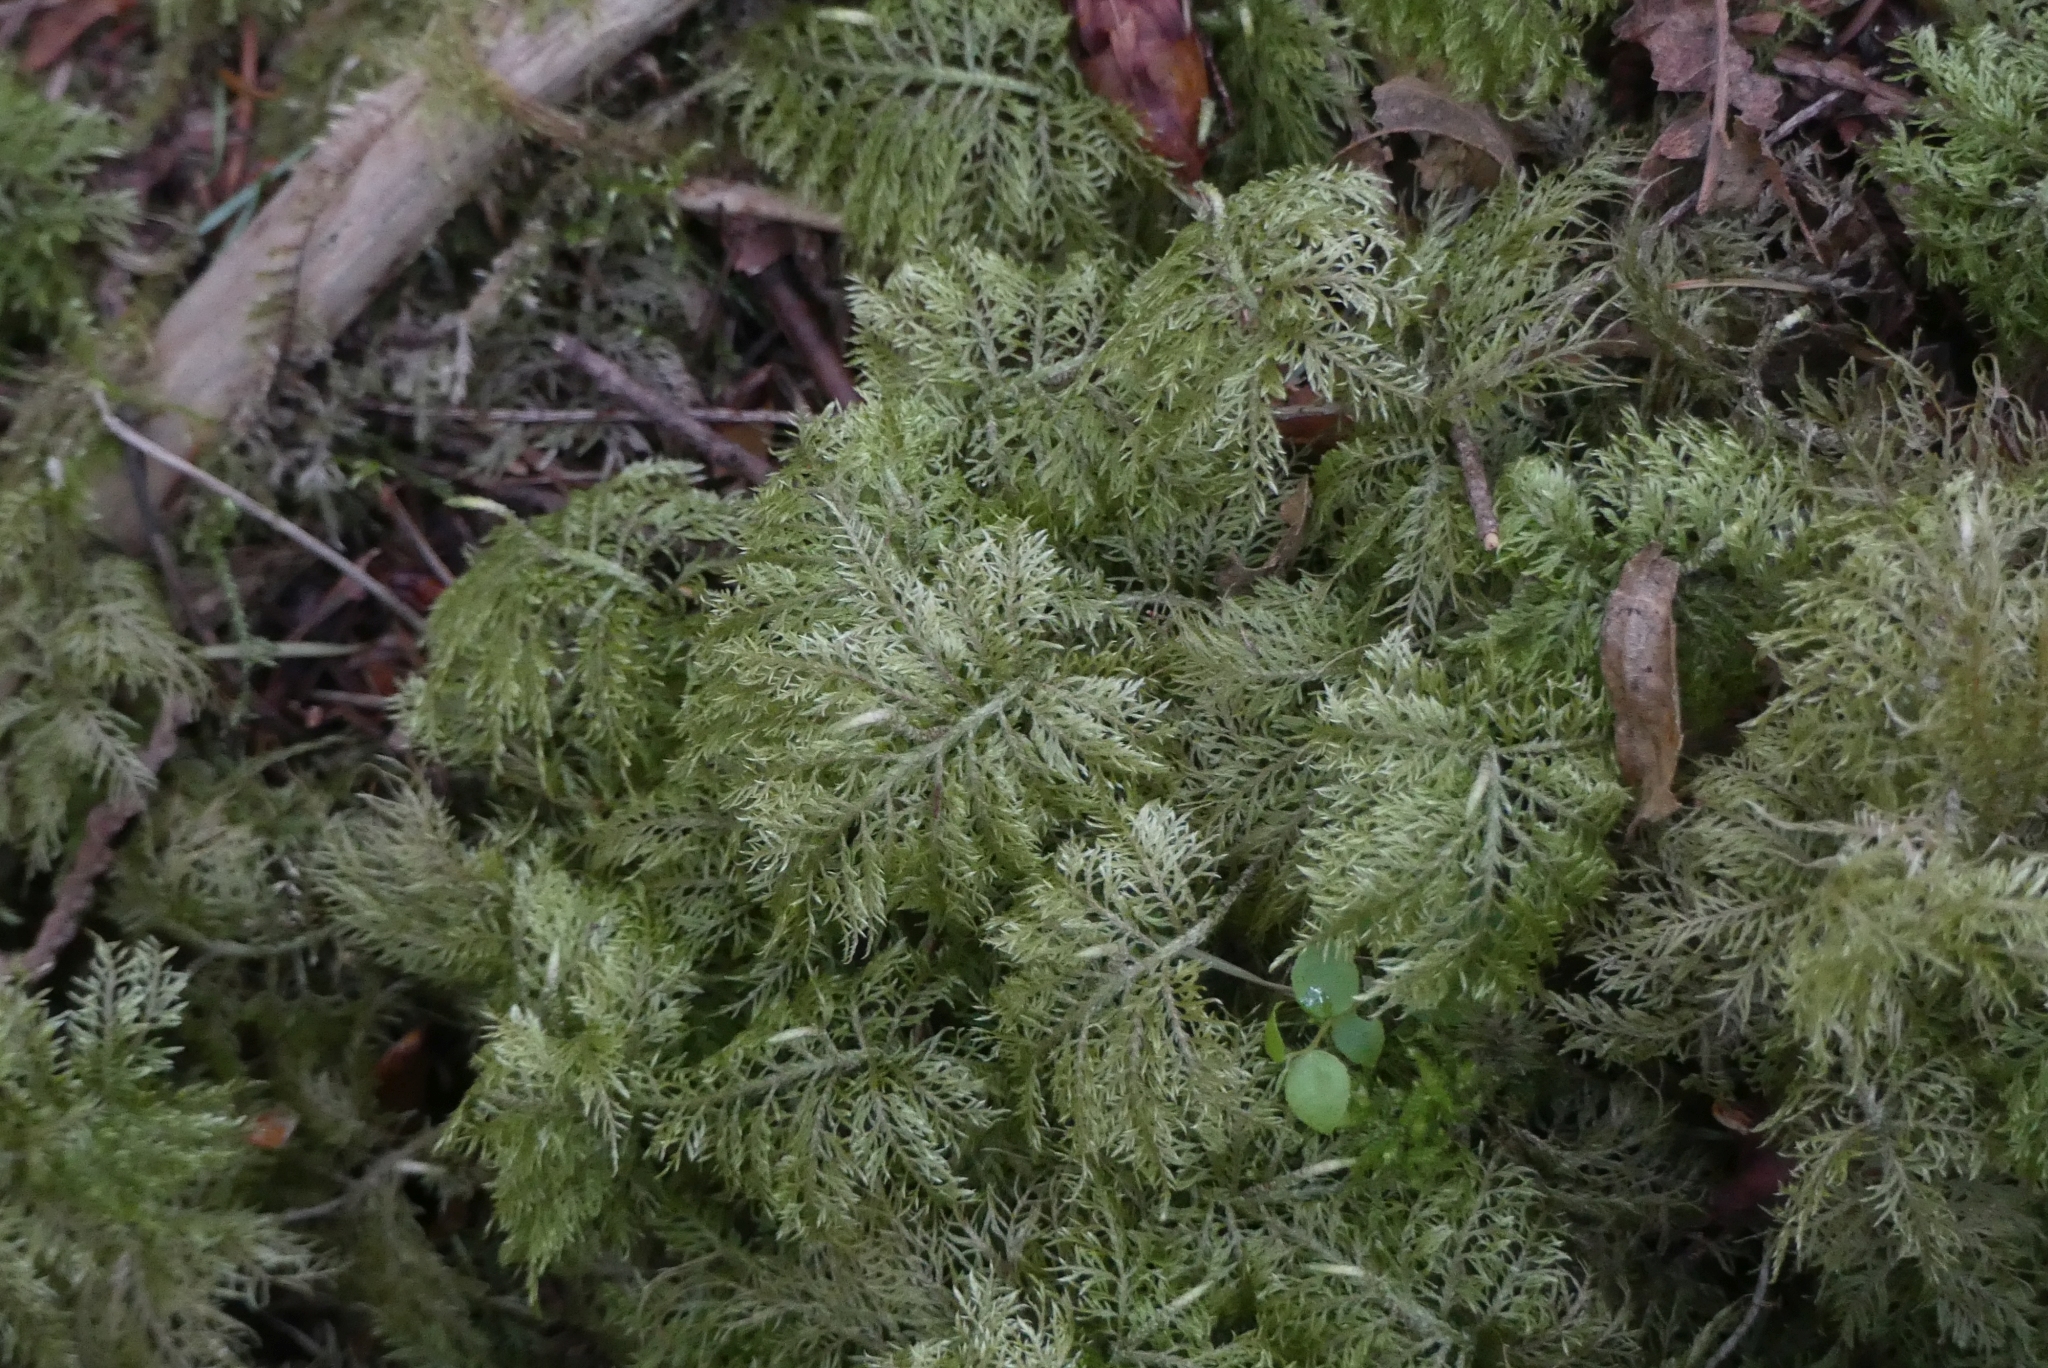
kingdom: Plantae
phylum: Bryophyta
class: Bryopsida
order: Hypnales
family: Hylocomiaceae
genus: Hylocomium
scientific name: Hylocomium splendens
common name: Stairstep moss
